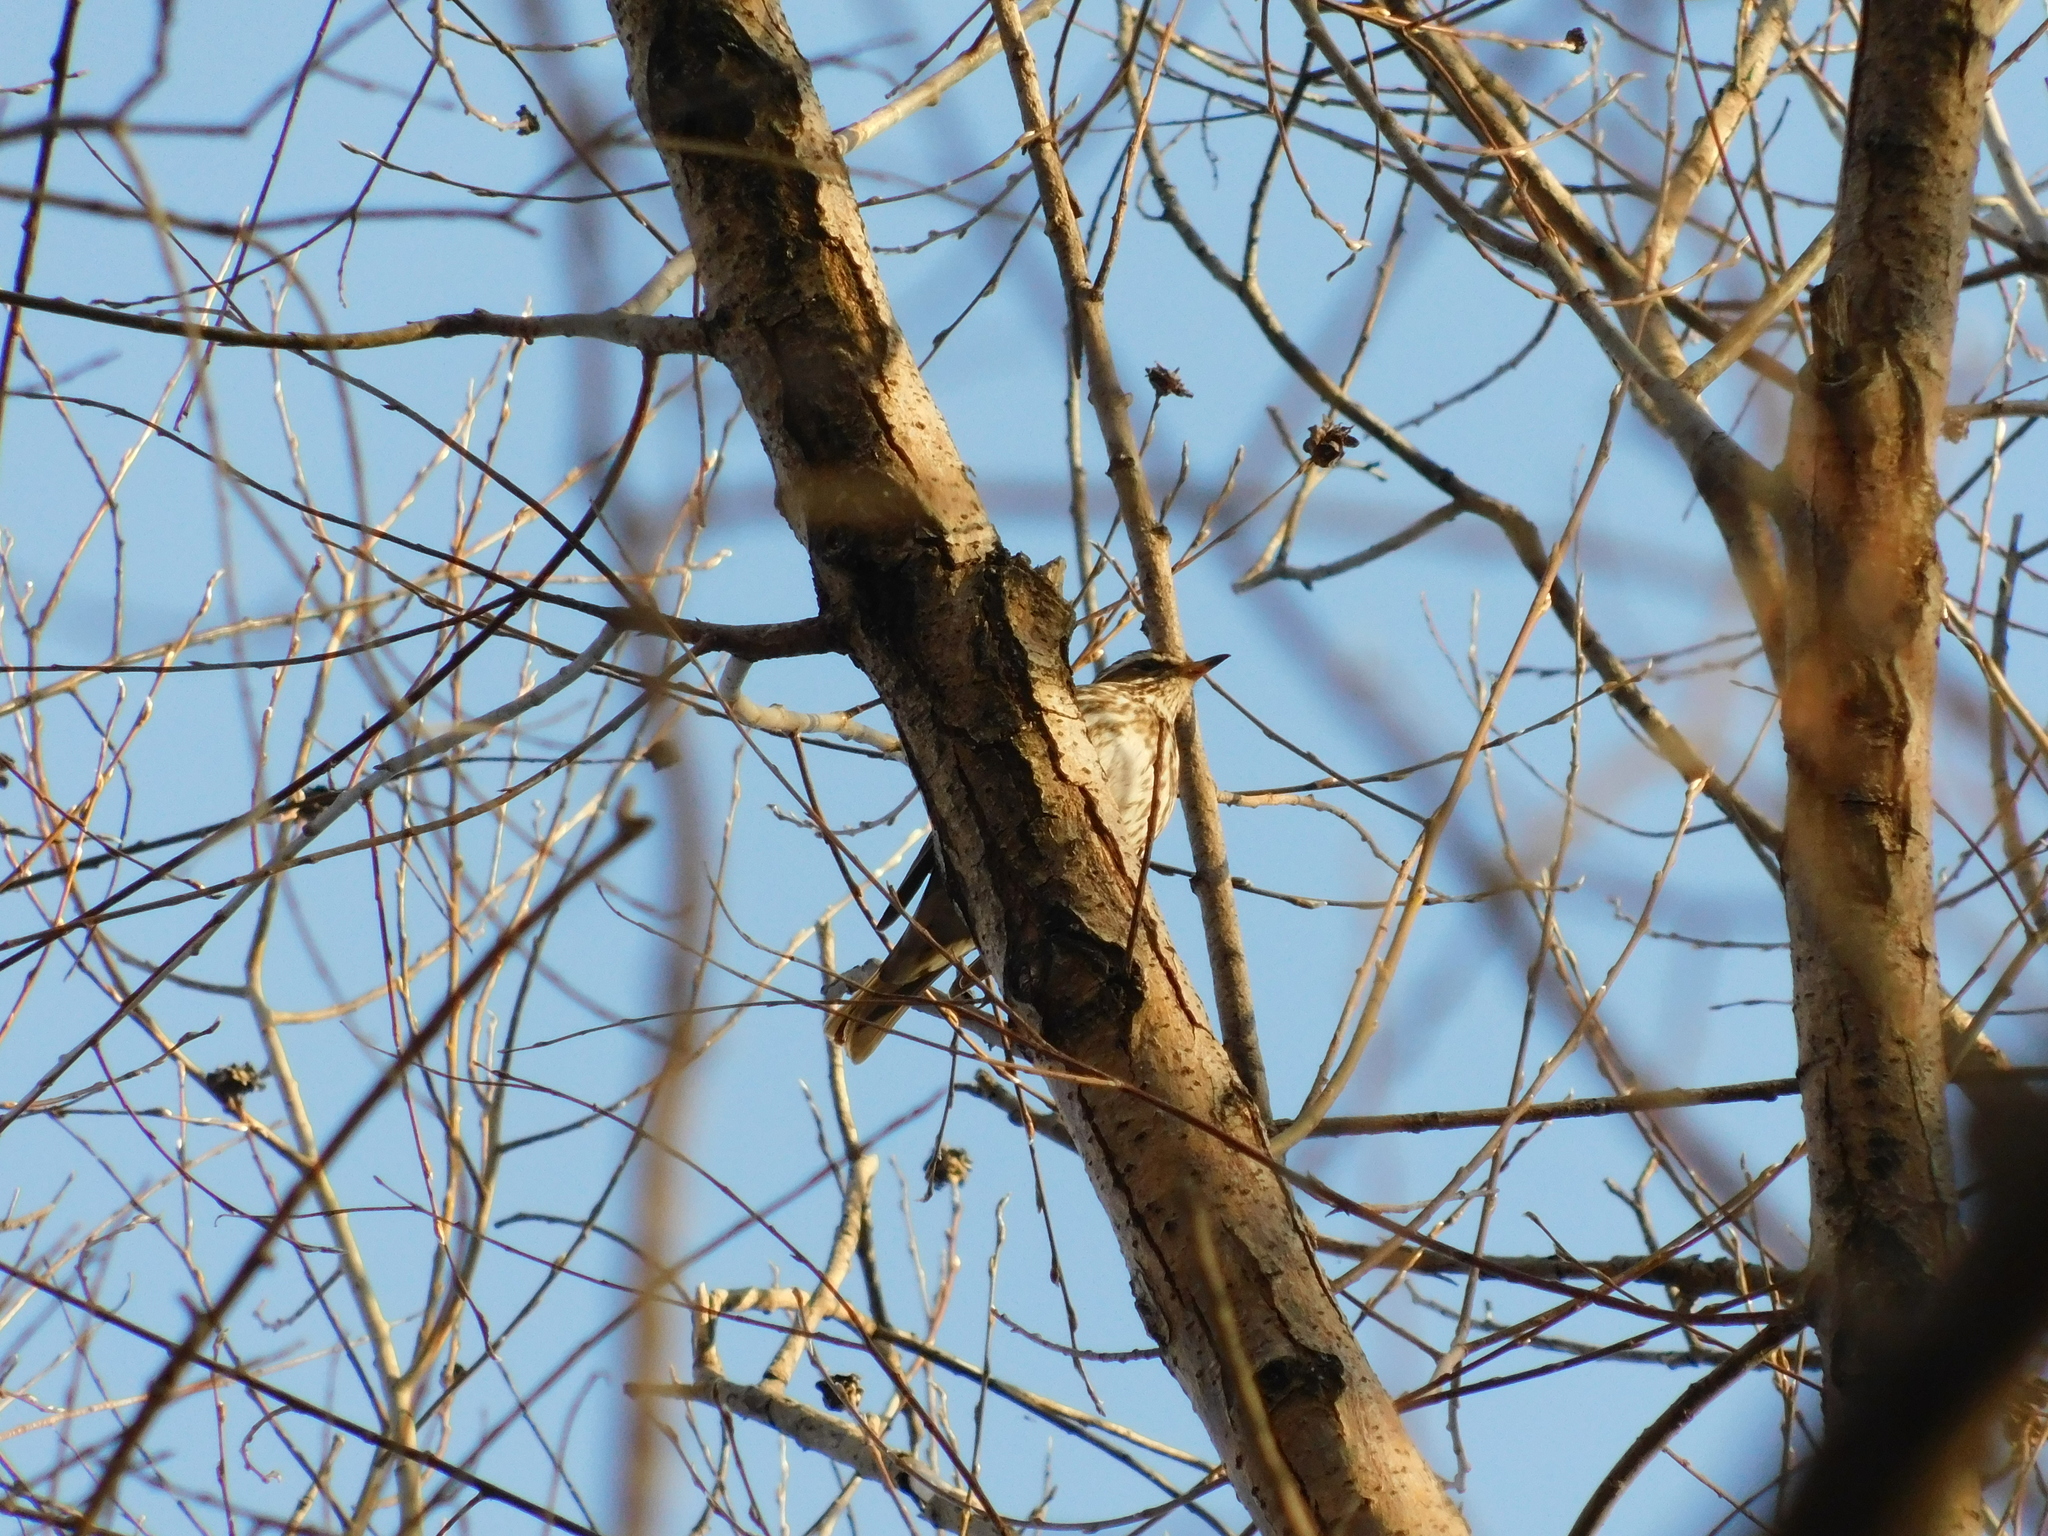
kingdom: Animalia
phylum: Chordata
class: Aves
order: Passeriformes
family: Turdidae
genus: Turdus
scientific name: Turdus iliacus
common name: Redwing
